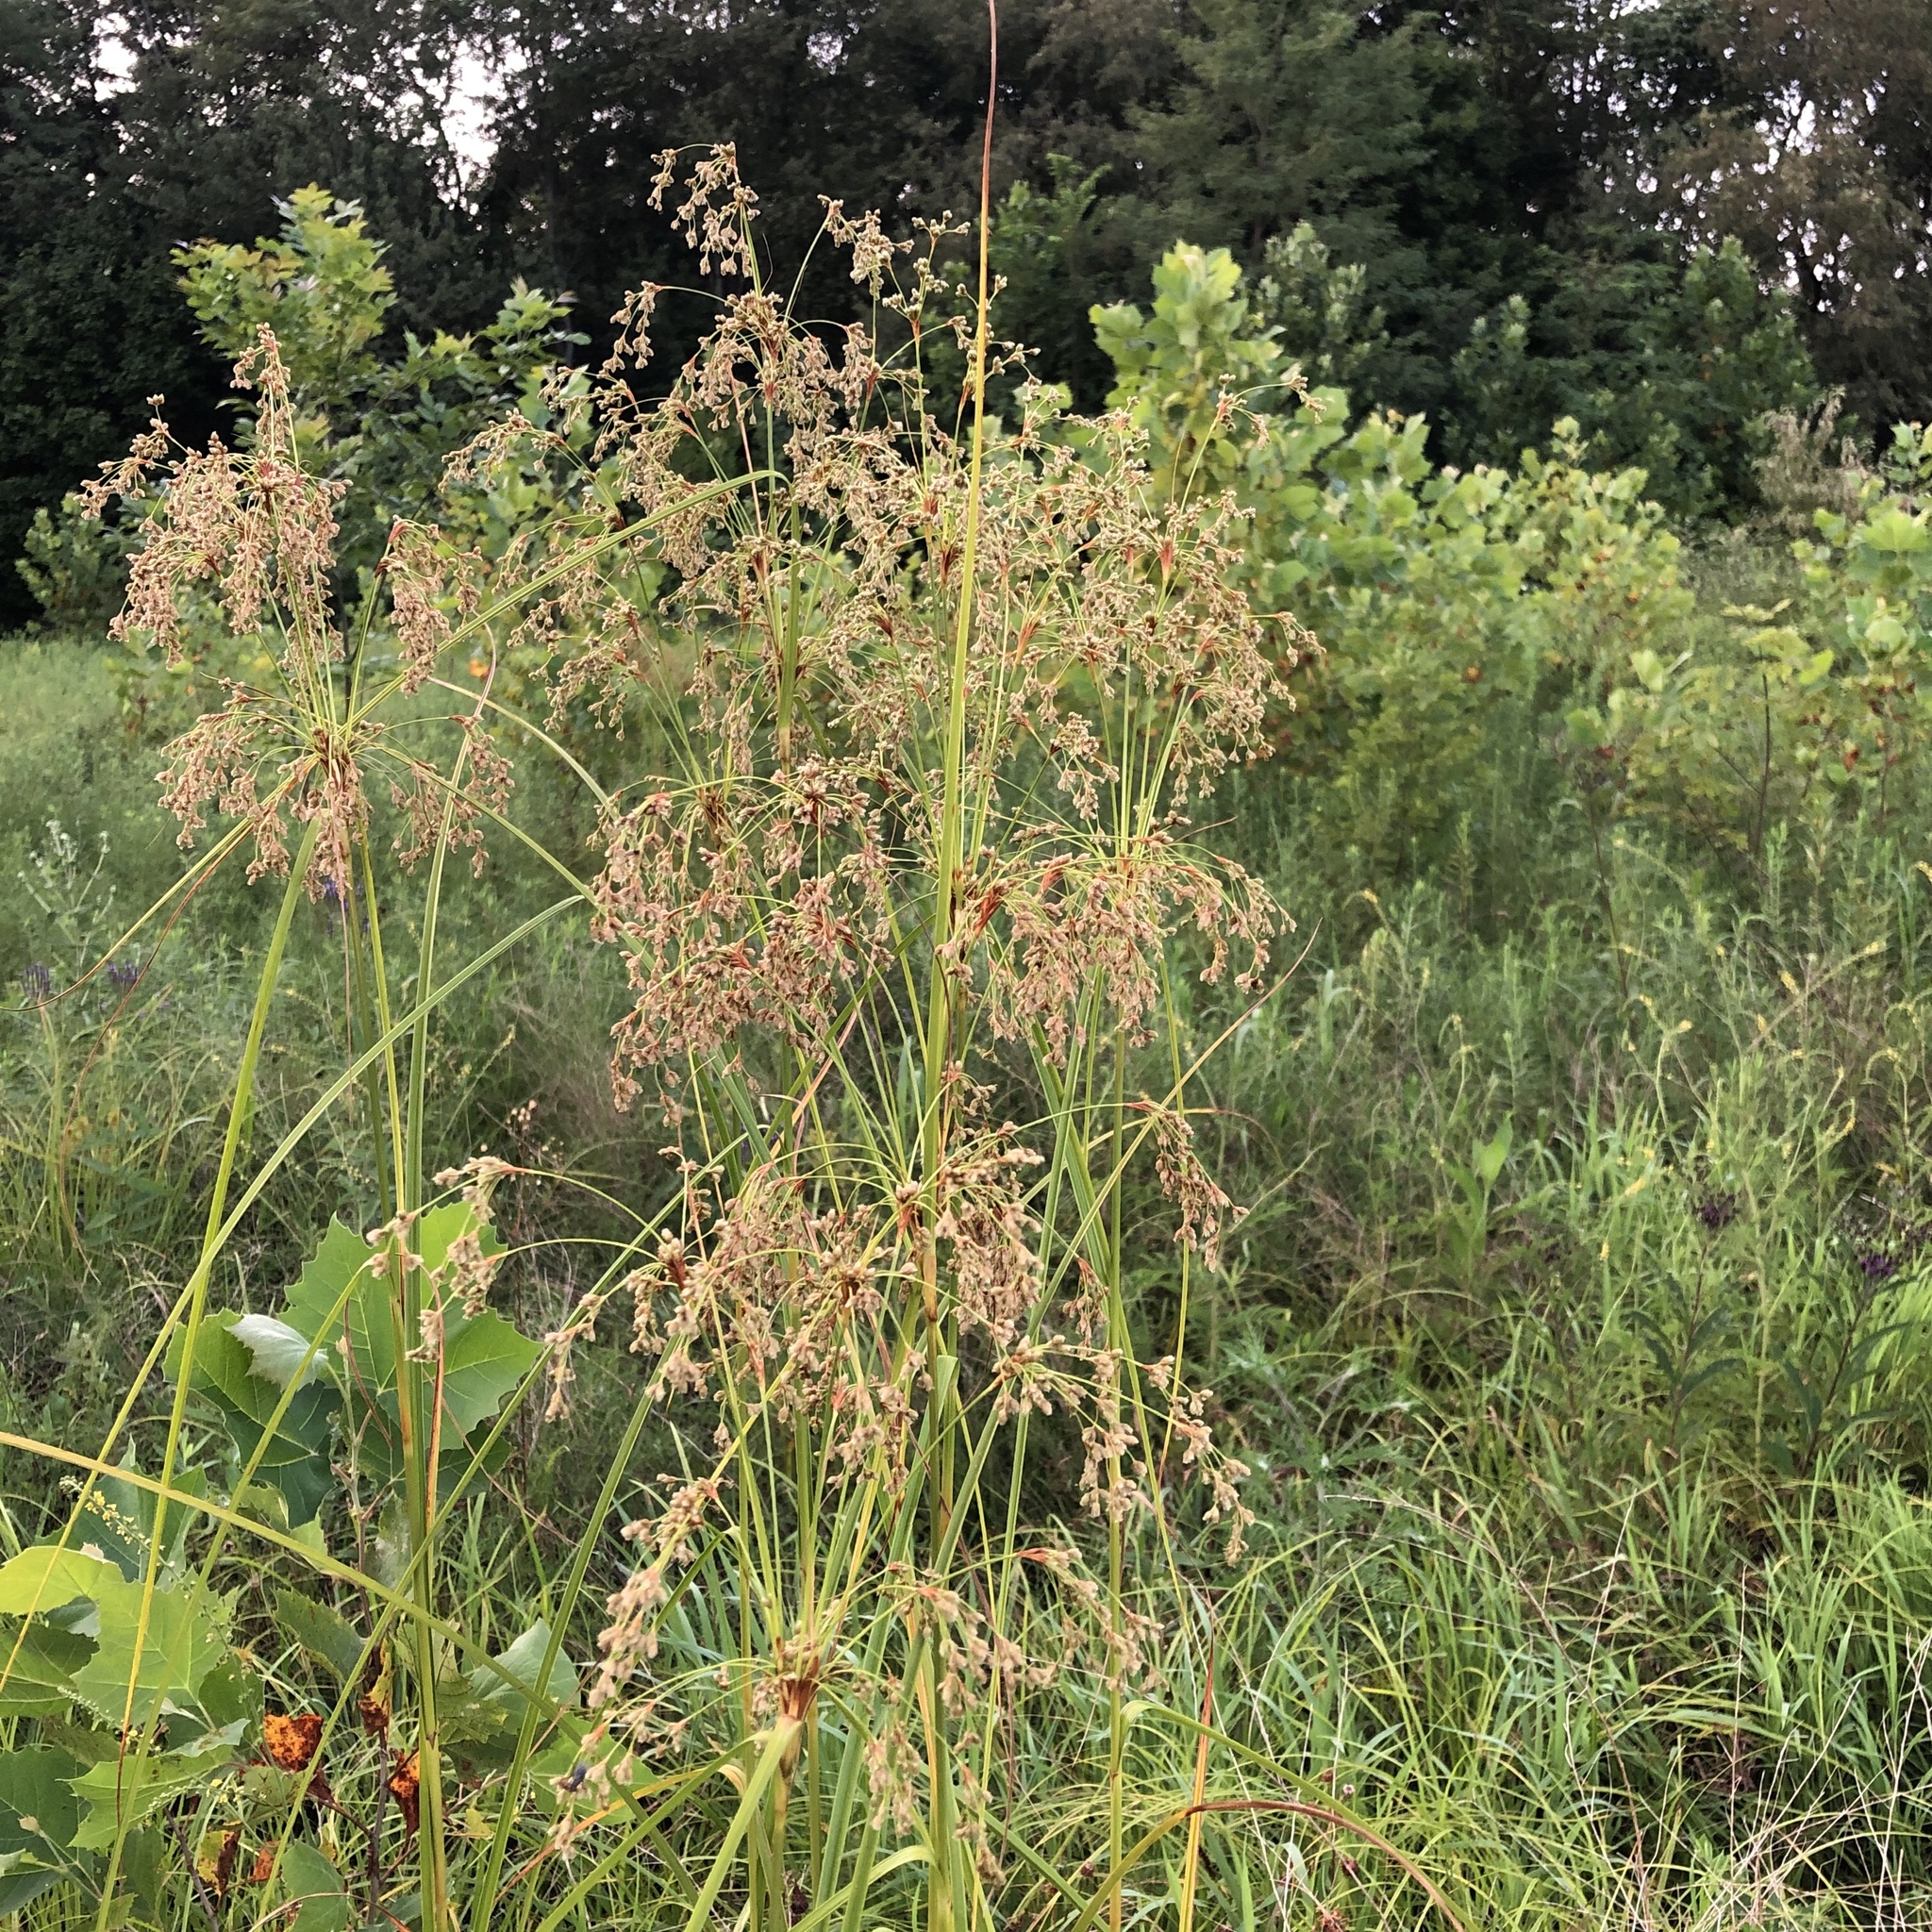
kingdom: Plantae
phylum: Tracheophyta
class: Liliopsida
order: Poales
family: Cyperaceae
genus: Scirpus
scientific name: Scirpus cyperinus
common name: Black-sheathed bulrush
